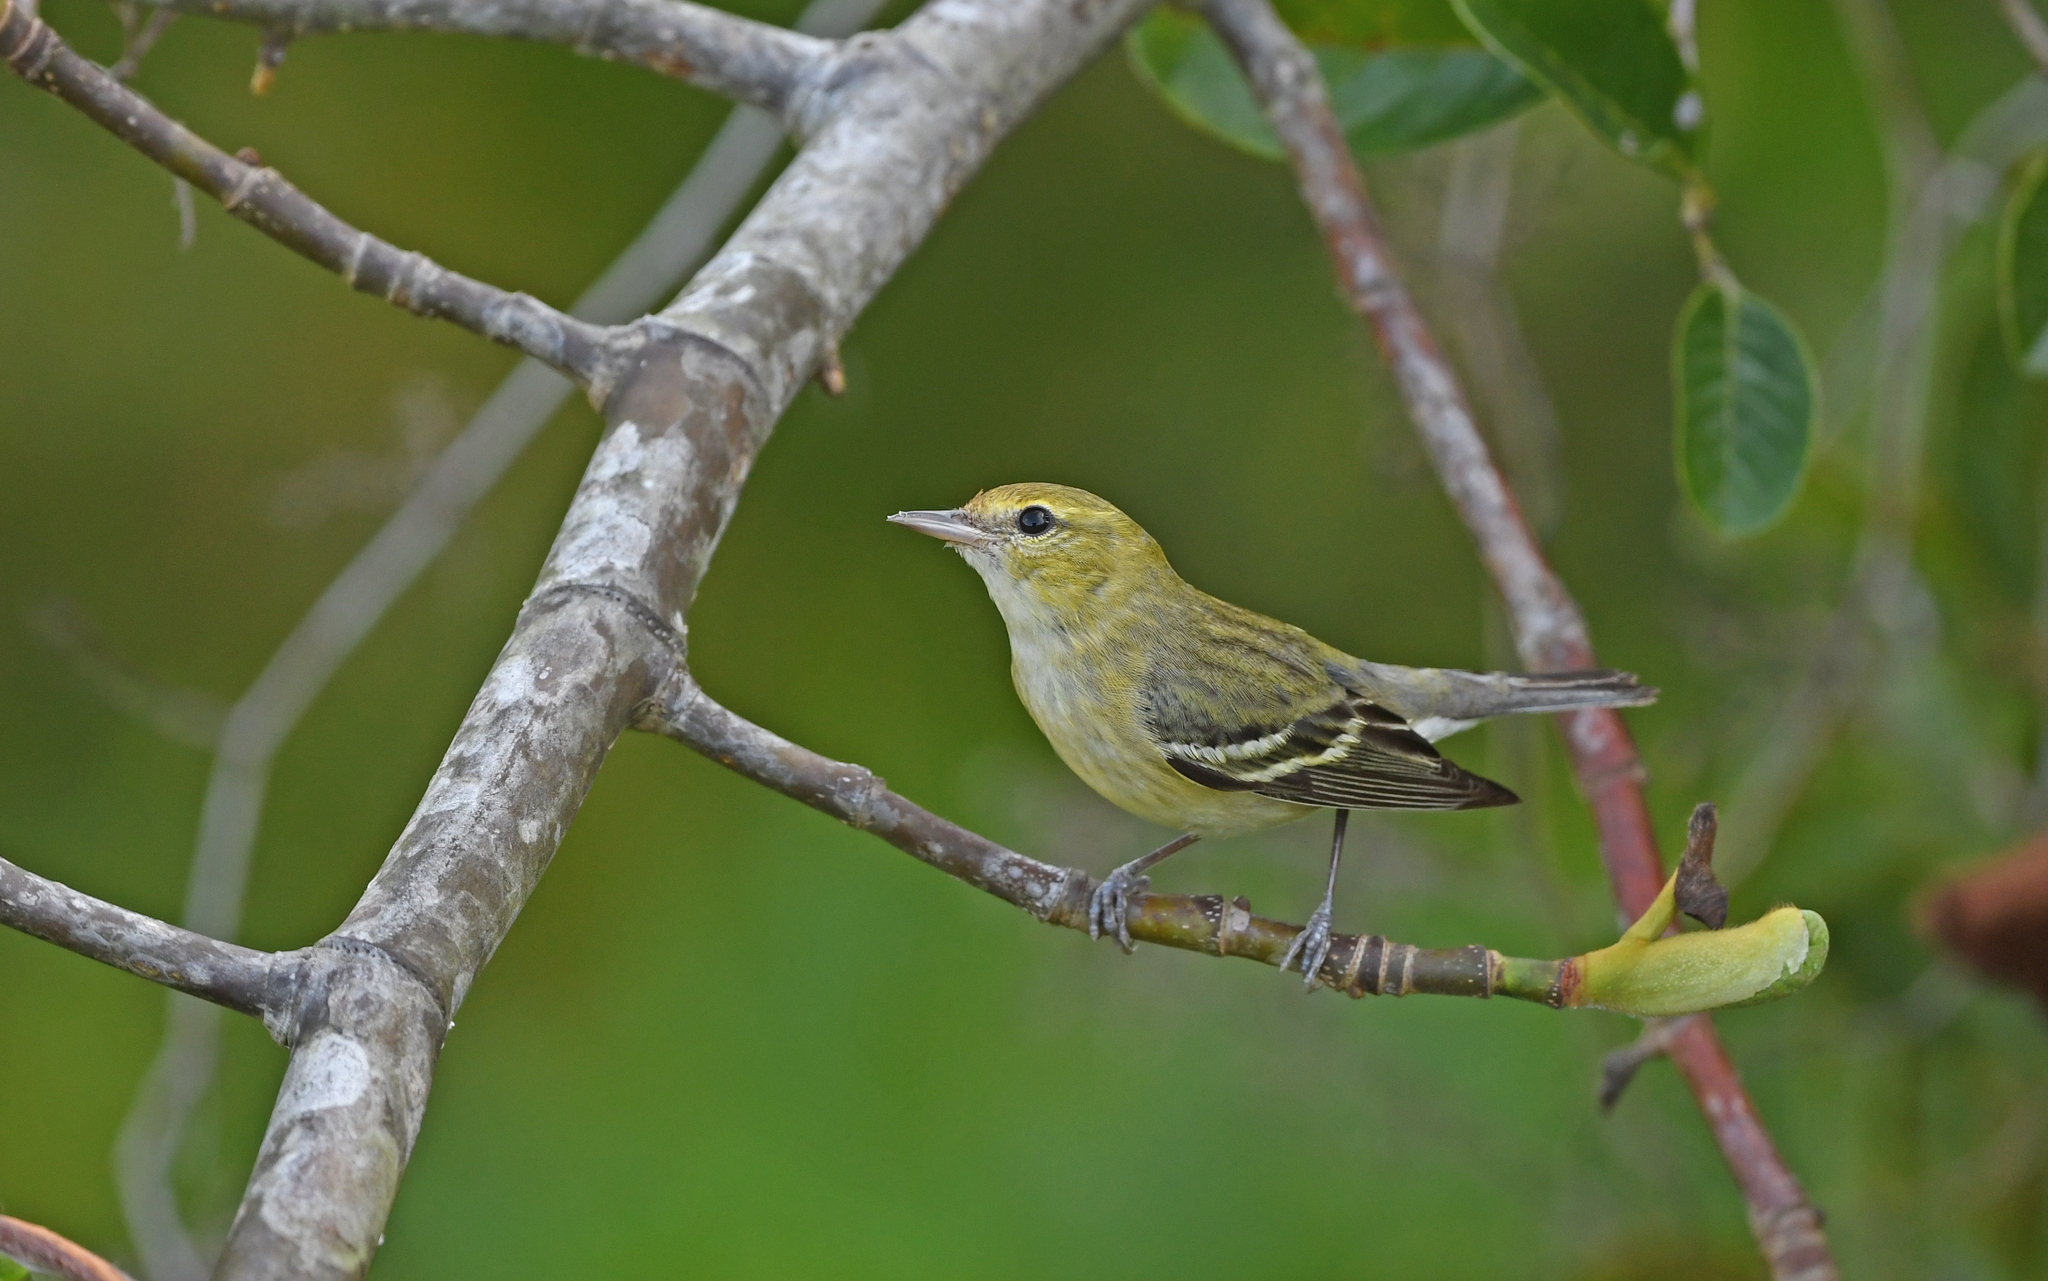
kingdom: Animalia
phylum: Chordata
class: Aves
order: Passeriformes
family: Parulidae
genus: Setophaga
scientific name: Setophaga castanea
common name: Bay-breasted warbler
